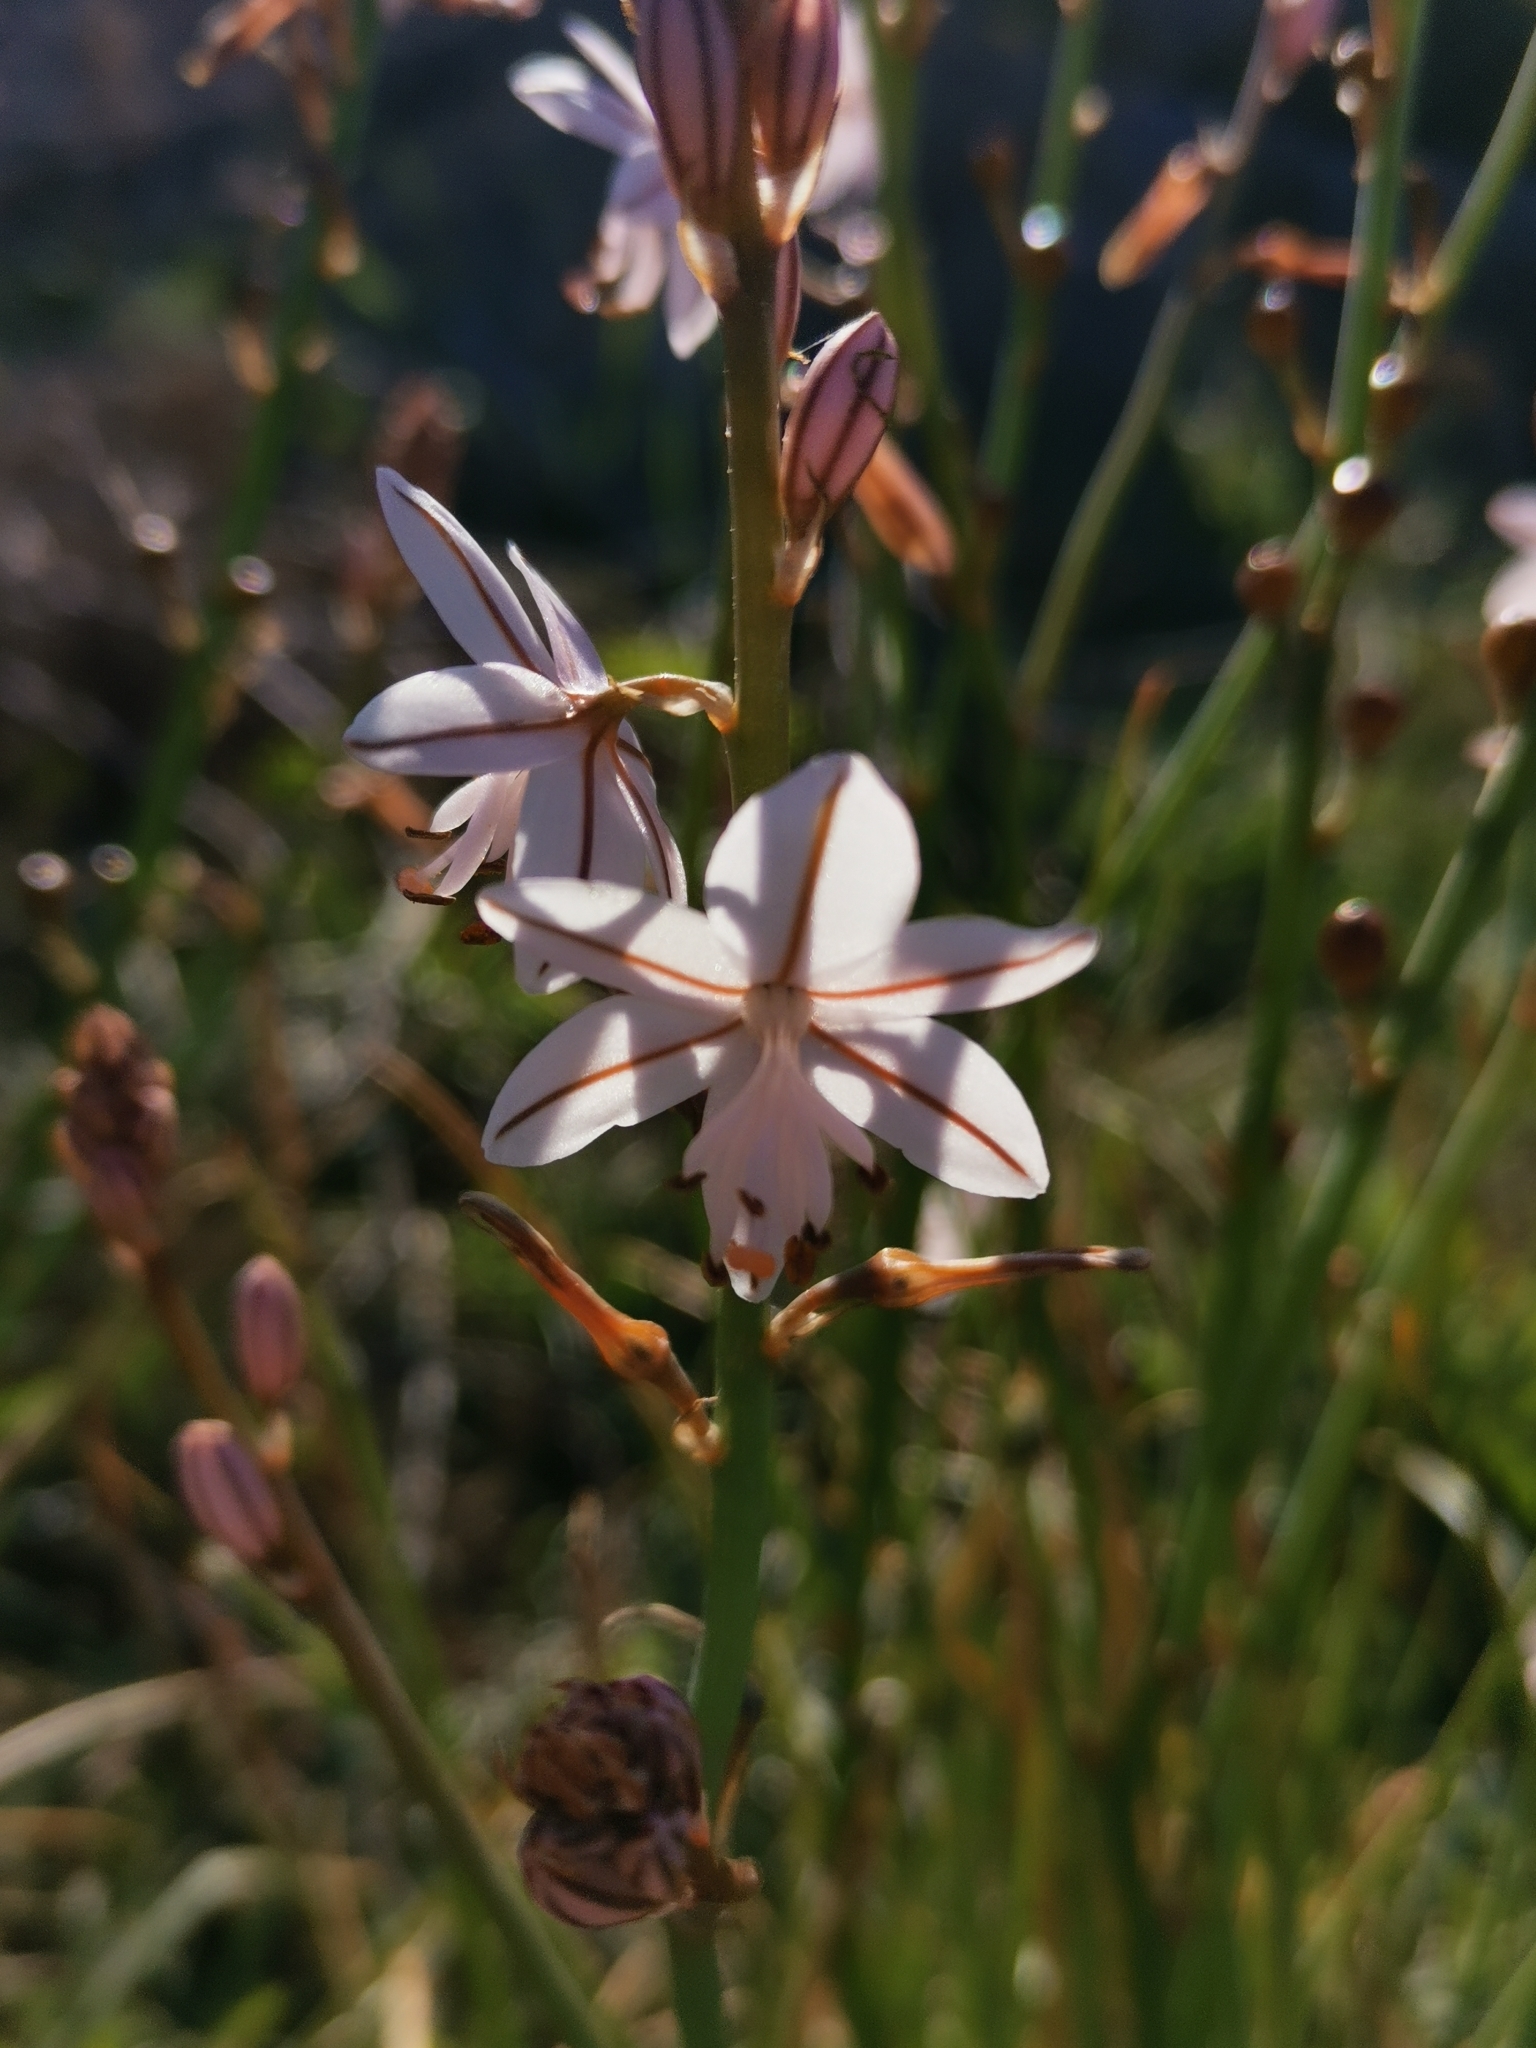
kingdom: Plantae
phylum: Tracheophyta
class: Liliopsida
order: Asparagales
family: Asphodelaceae
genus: Asphodelus
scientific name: Asphodelus fistulosus
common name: Onionweed
